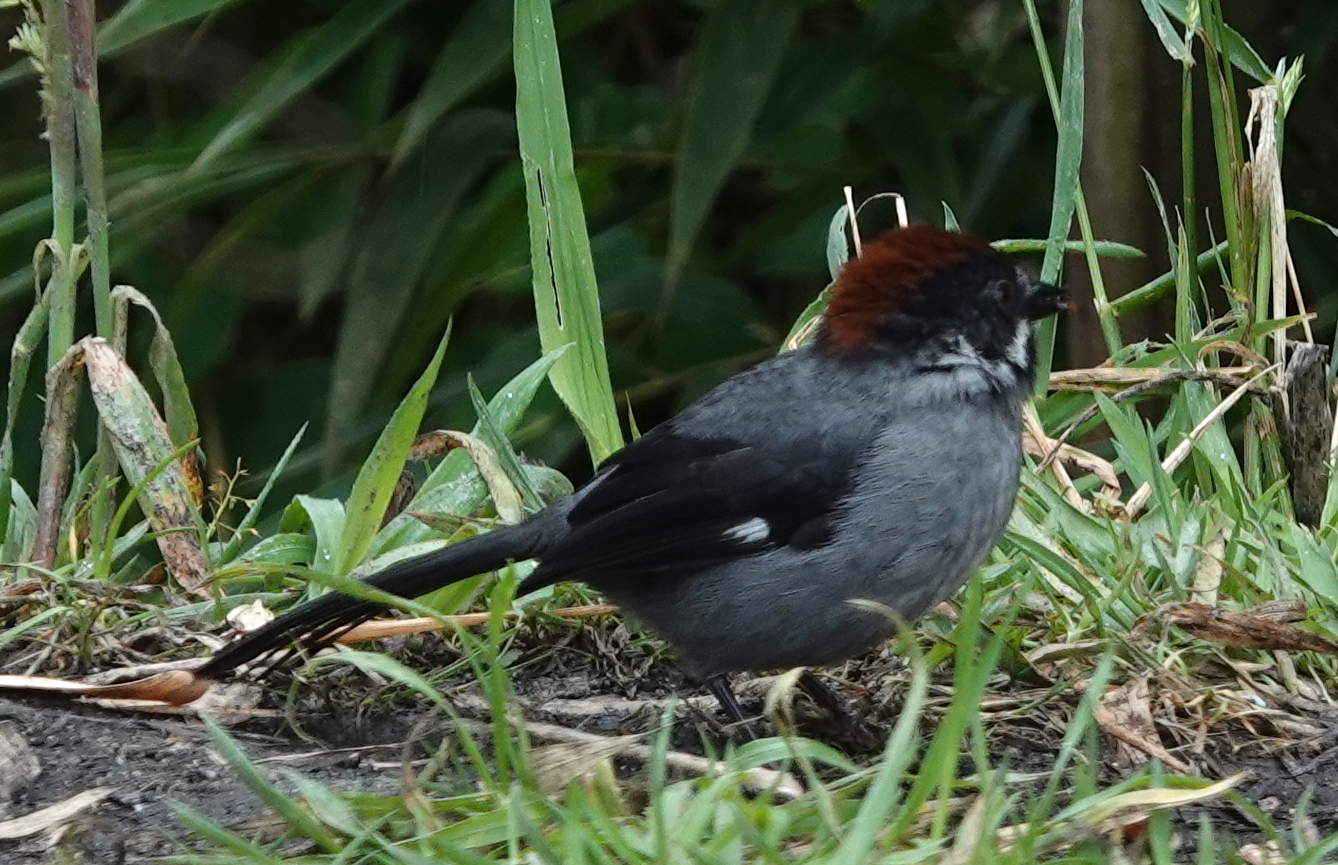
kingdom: Animalia
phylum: Chordata
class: Aves
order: Passeriformes
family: Passerellidae
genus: Atlapetes
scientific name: Atlapetes schistaceus
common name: Slaty brushfinch
